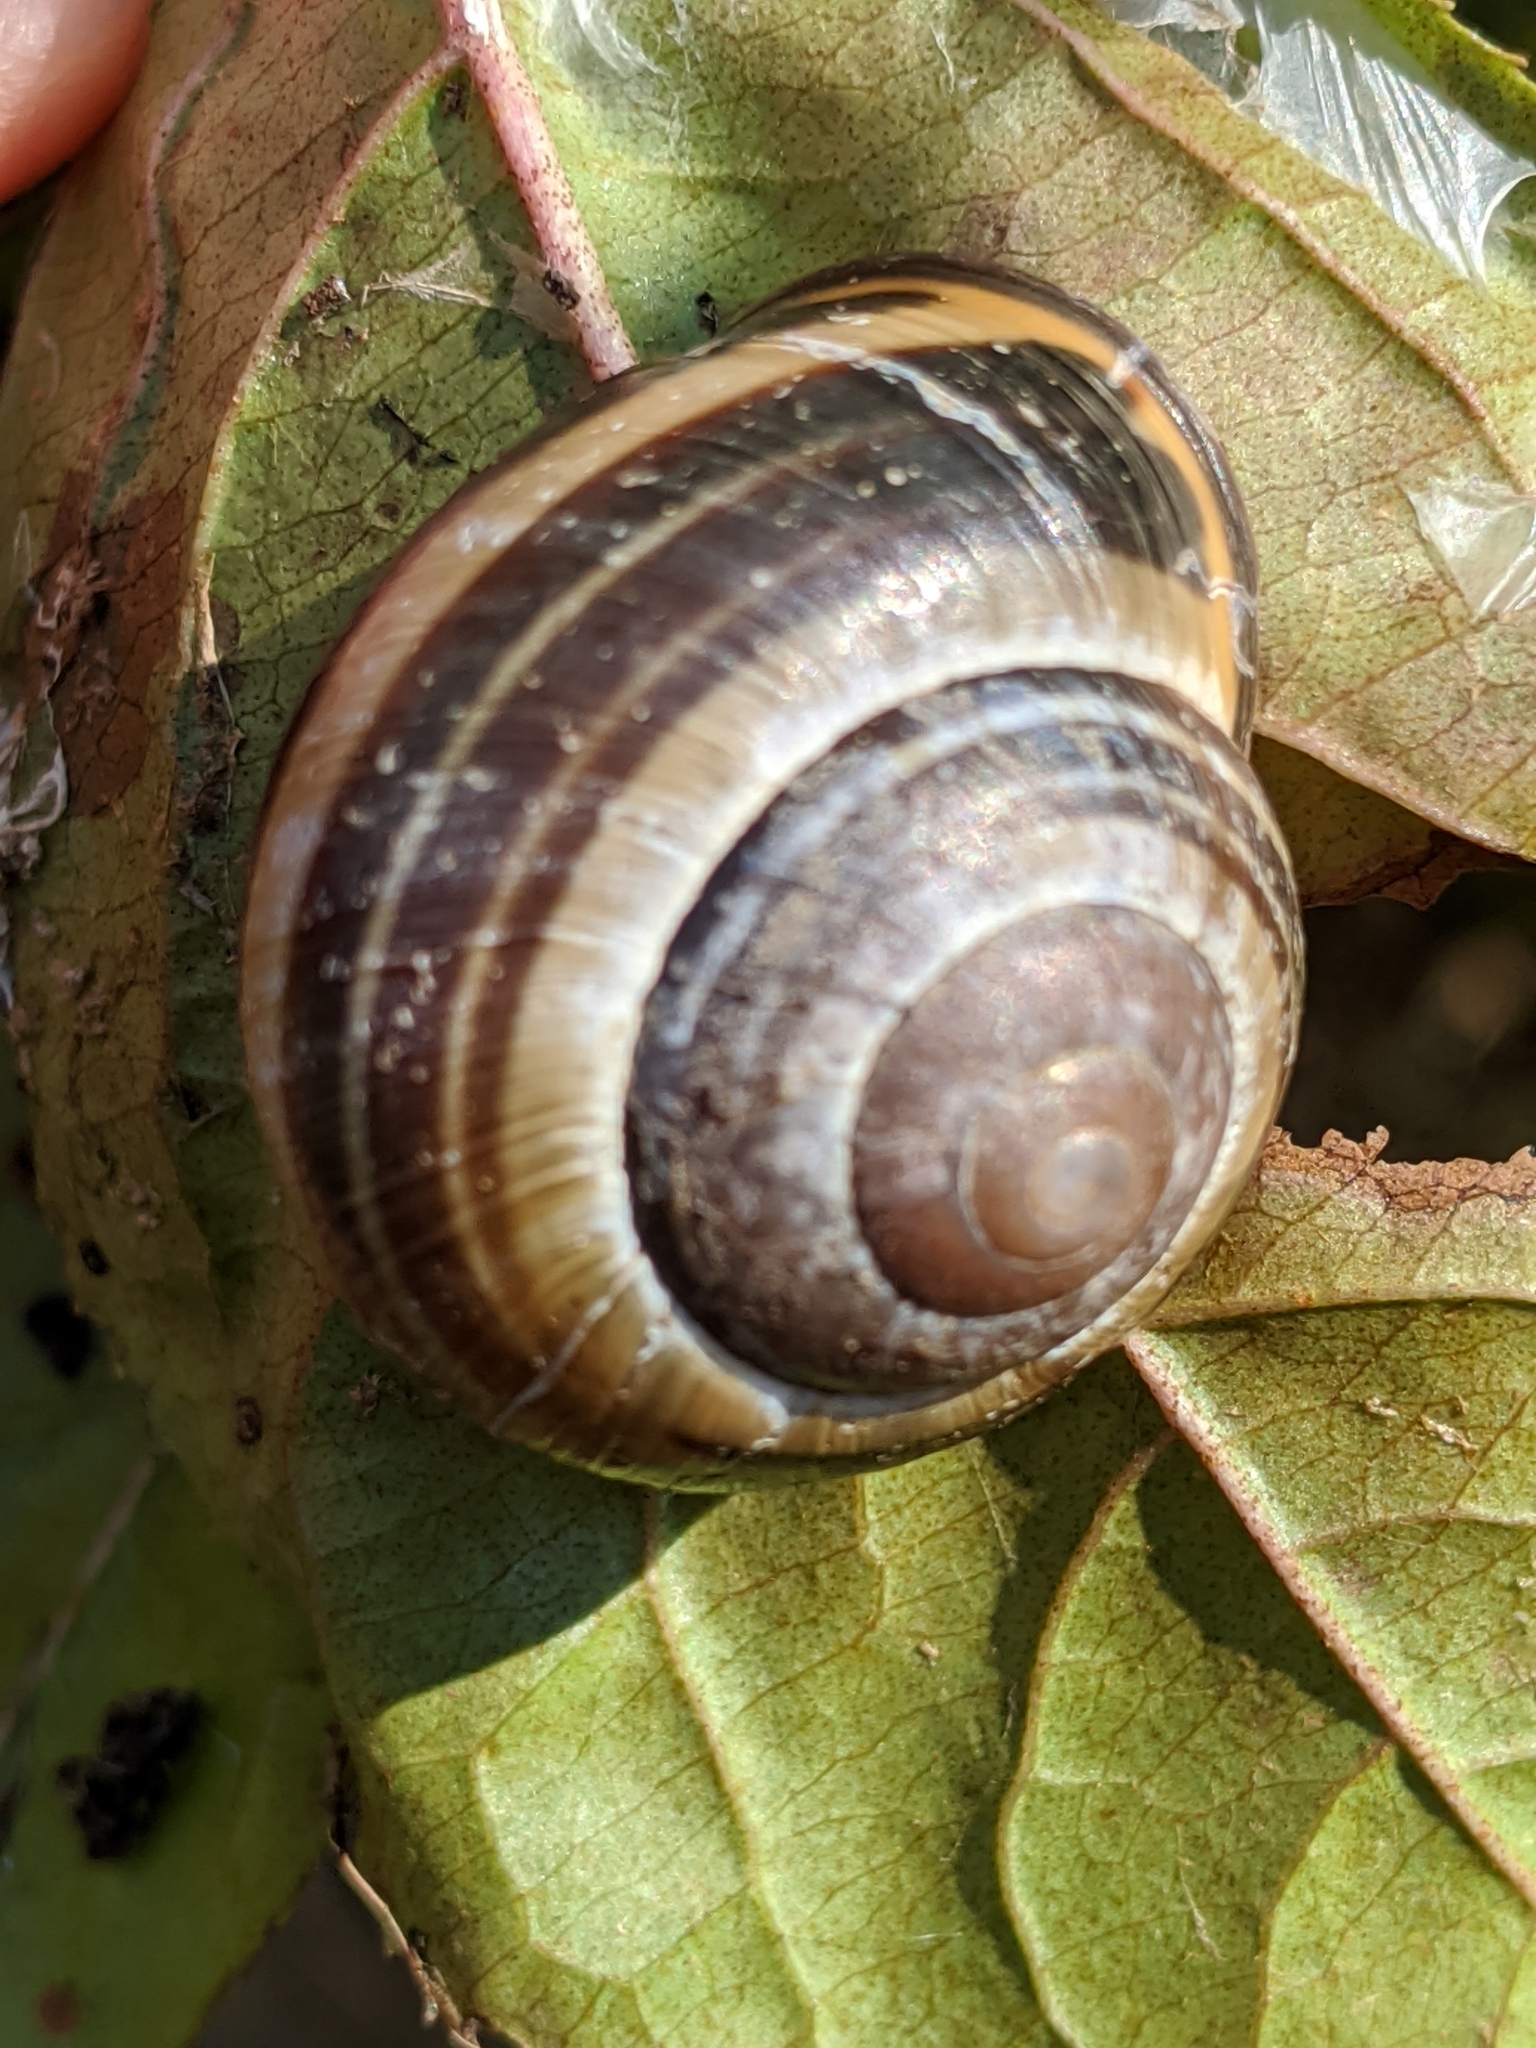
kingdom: Animalia
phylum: Mollusca
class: Gastropoda
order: Stylommatophora
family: Helicidae
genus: Cepaea
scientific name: Cepaea nemoralis
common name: Grovesnail
